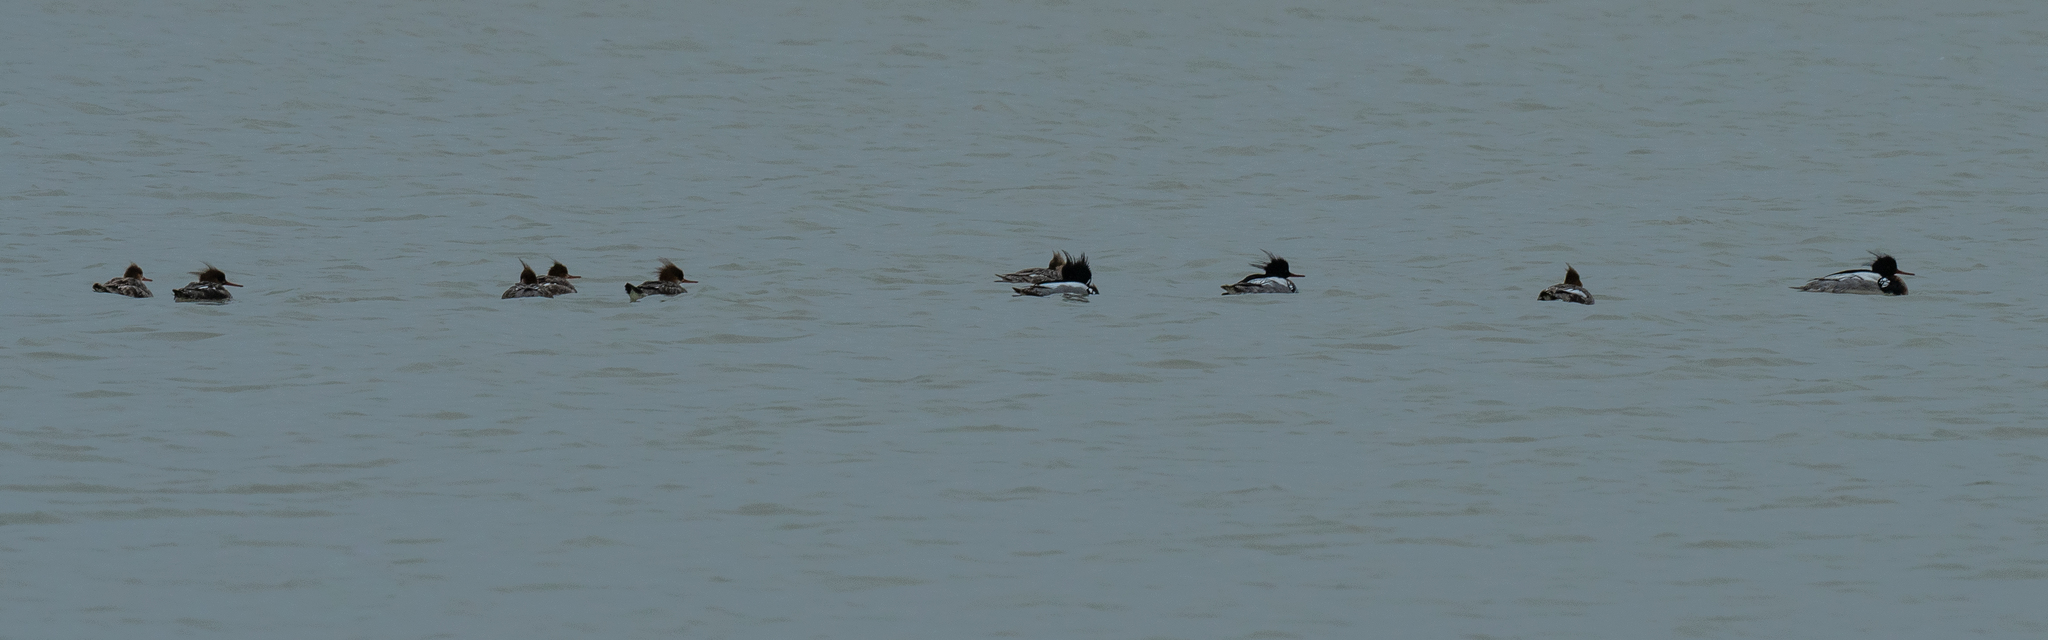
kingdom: Animalia
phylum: Chordata
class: Aves
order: Anseriformes
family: Anatidae
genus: Mergus
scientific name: Mergus serrator
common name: Red-breasted merganser
